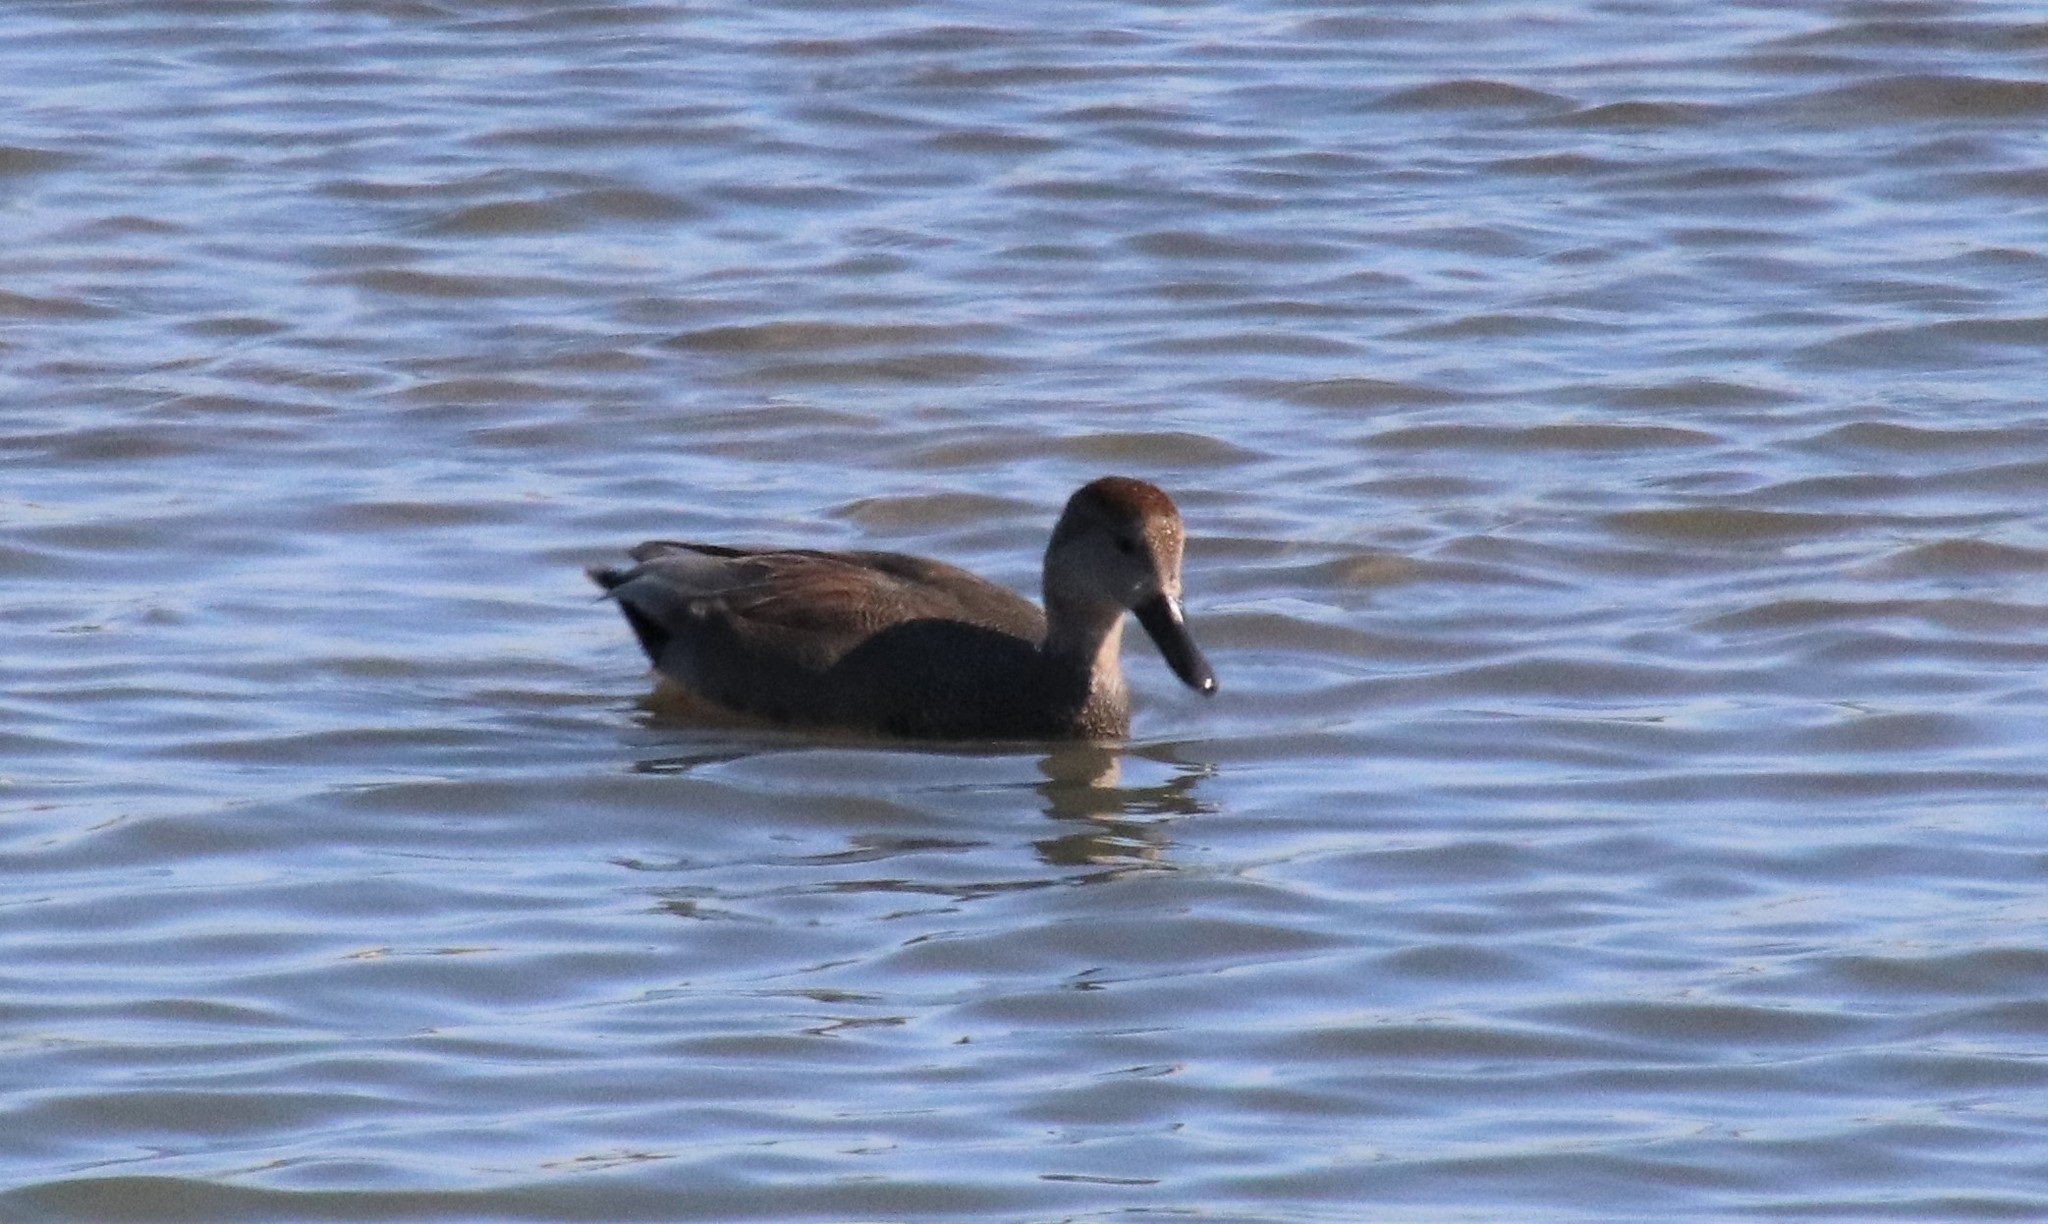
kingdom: Animalia
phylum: Chordata
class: Aves
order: Anseriformes
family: Anatidae
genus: Mareca
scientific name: Mareca strepera
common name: Gadwall
